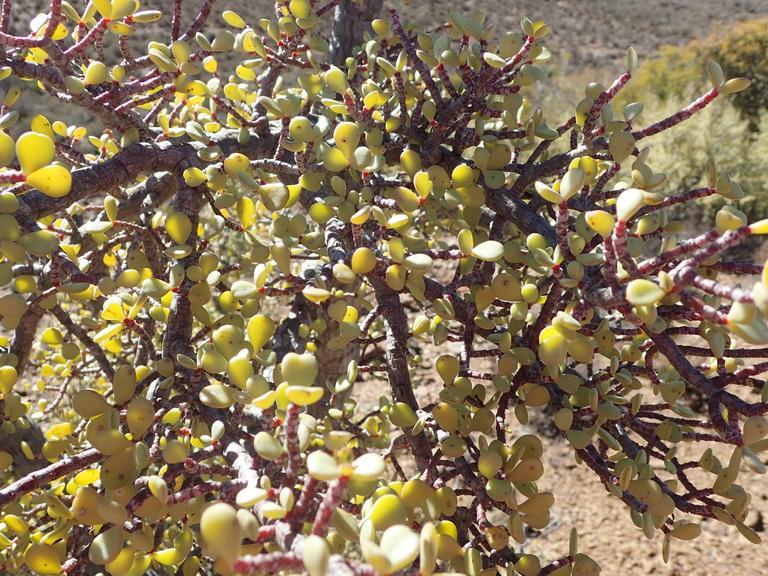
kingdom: Plantae
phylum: Tracheophyta
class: Magnoliopsida
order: Caryophyllales
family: Didiereaceae
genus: Portulacaria
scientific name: Portulacaria afra
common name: Elephant-bush
